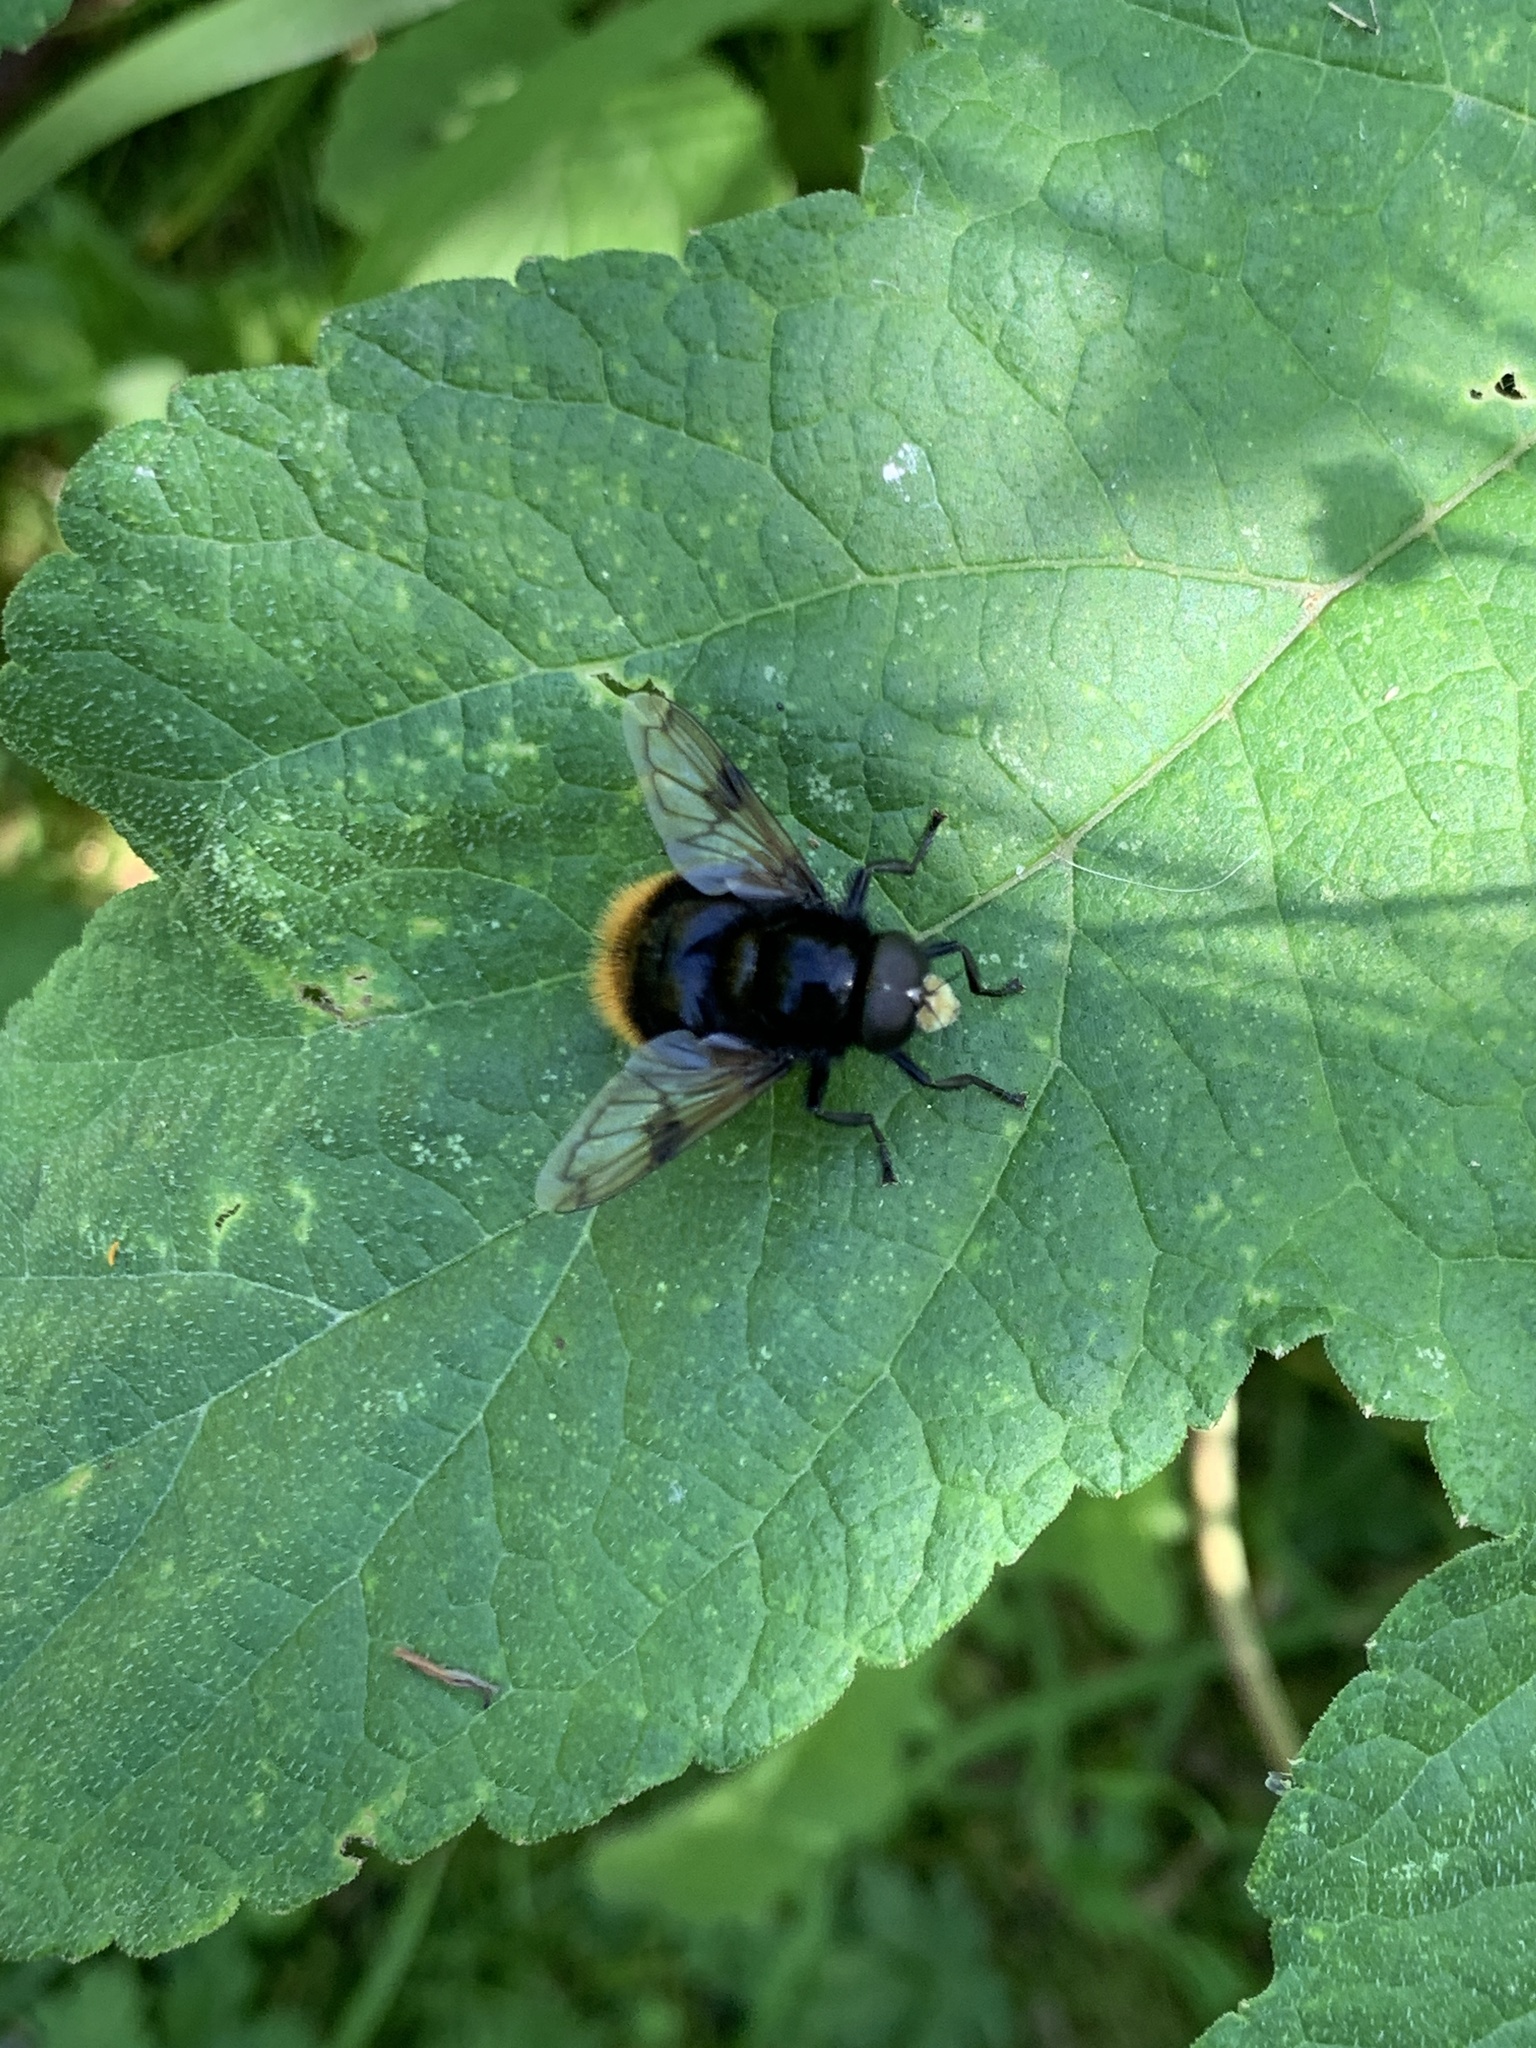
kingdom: Animalia
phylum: Arthropoda
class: Insecta
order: Diptera
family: Syrphidae
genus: Volucella
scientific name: Volucella bombylans
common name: Bumble bee hover fly
